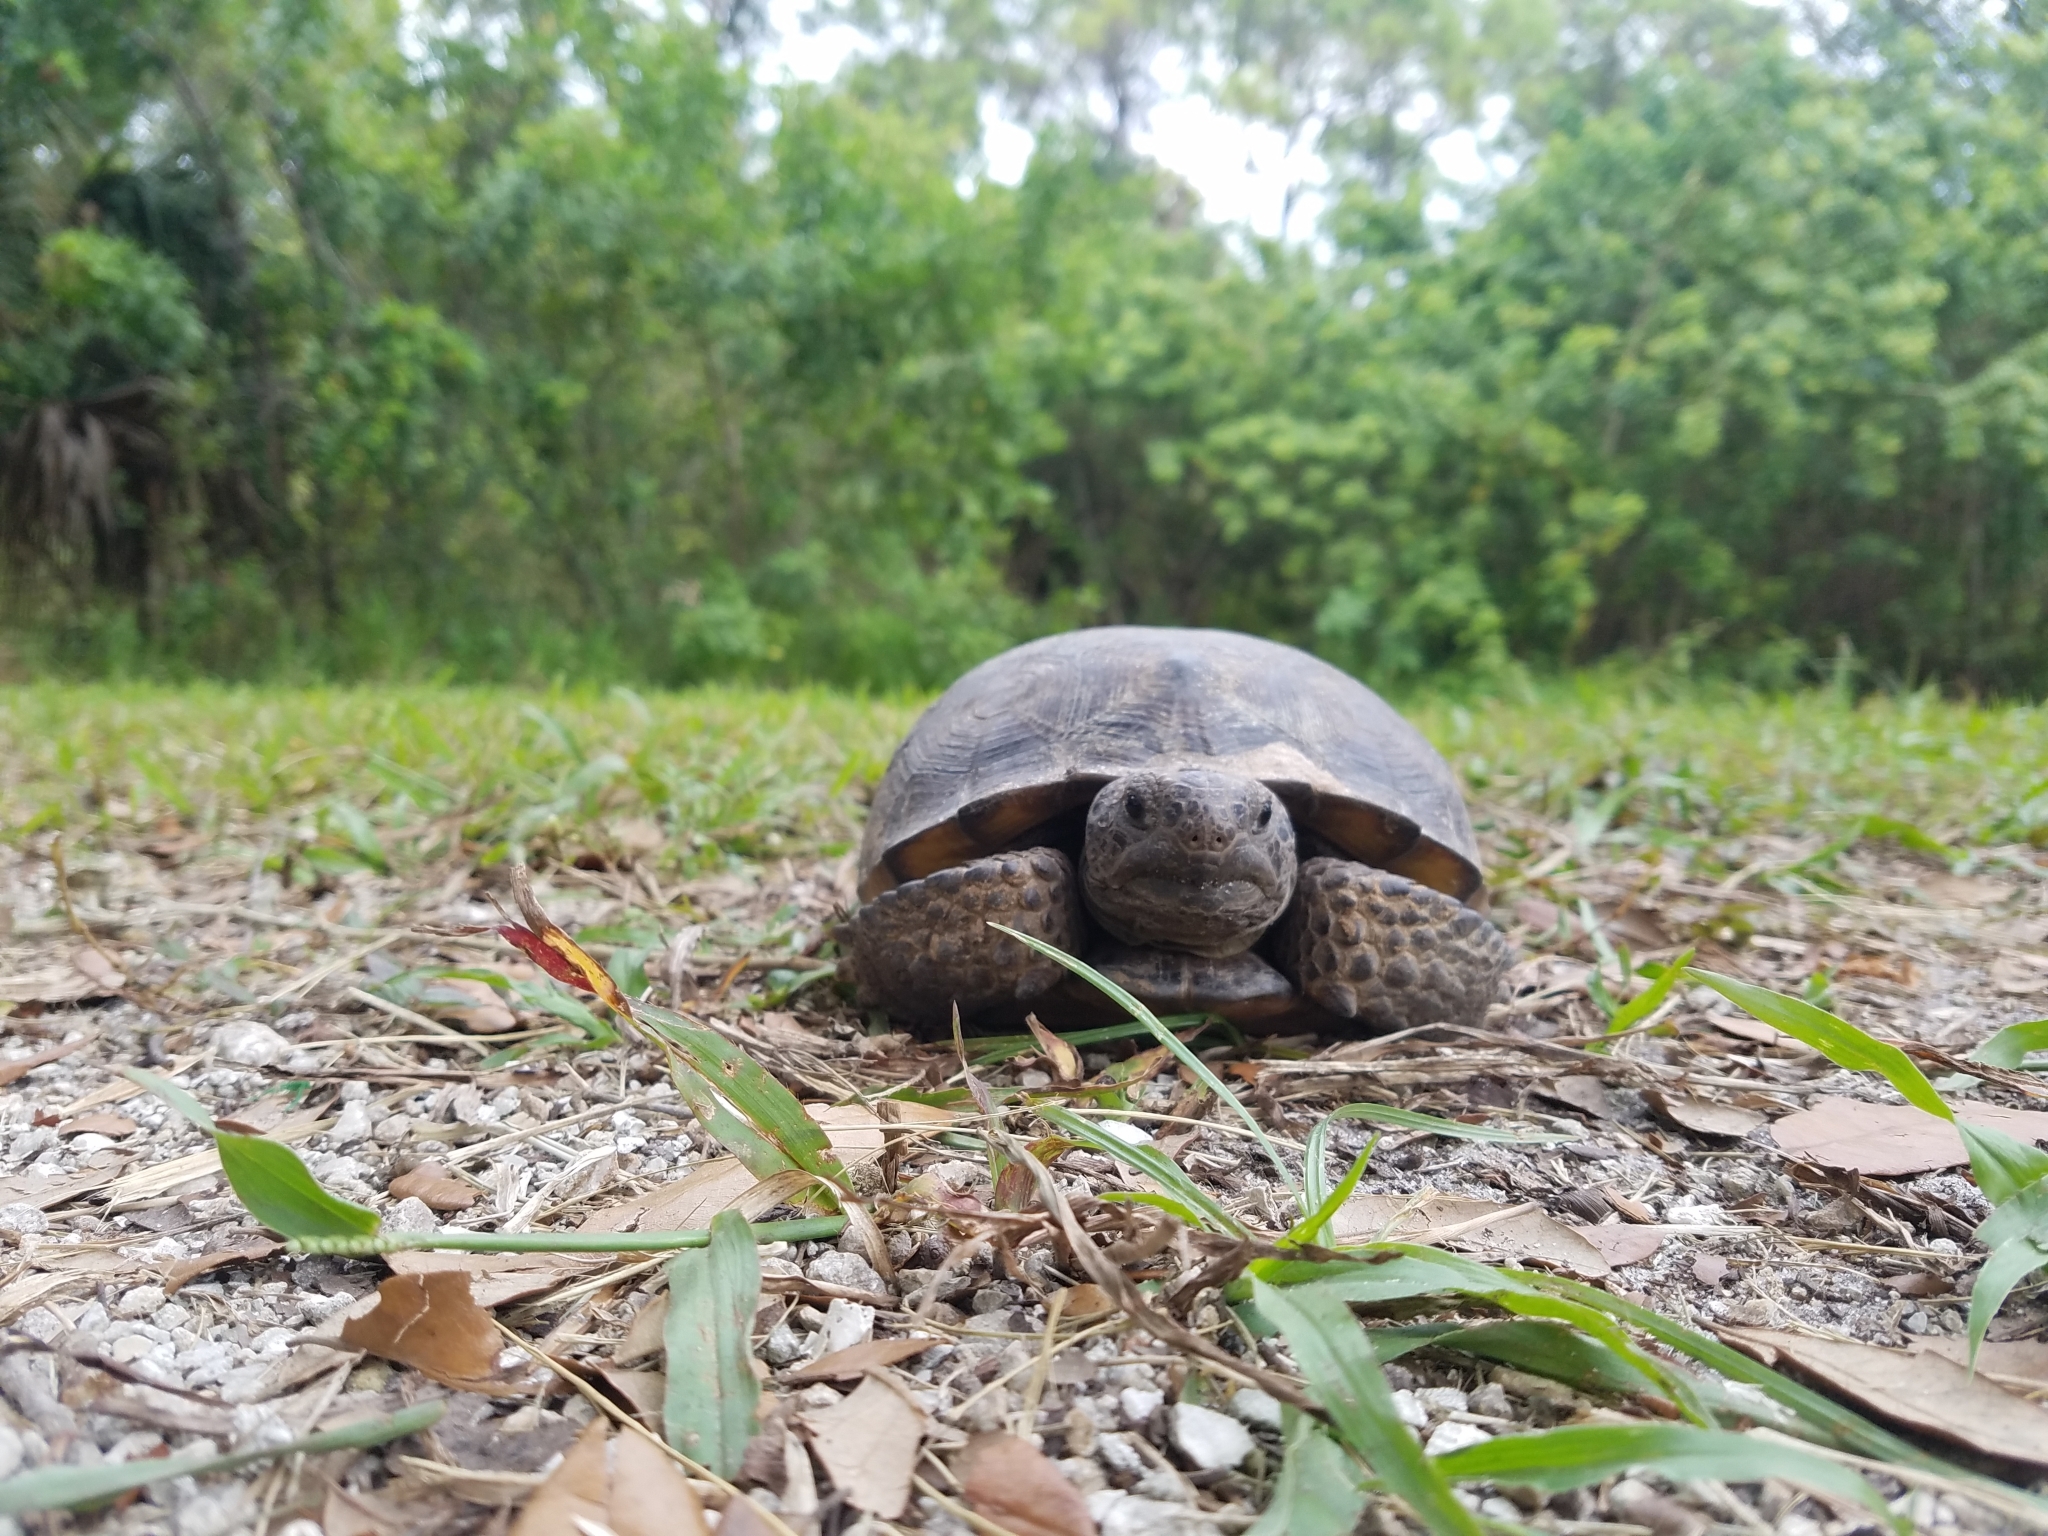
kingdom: Animalia
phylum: Chordata
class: Testudines
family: Testudinidae
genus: Gopherus
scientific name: Gopherus polyphemus
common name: Florida gopher tortoise
